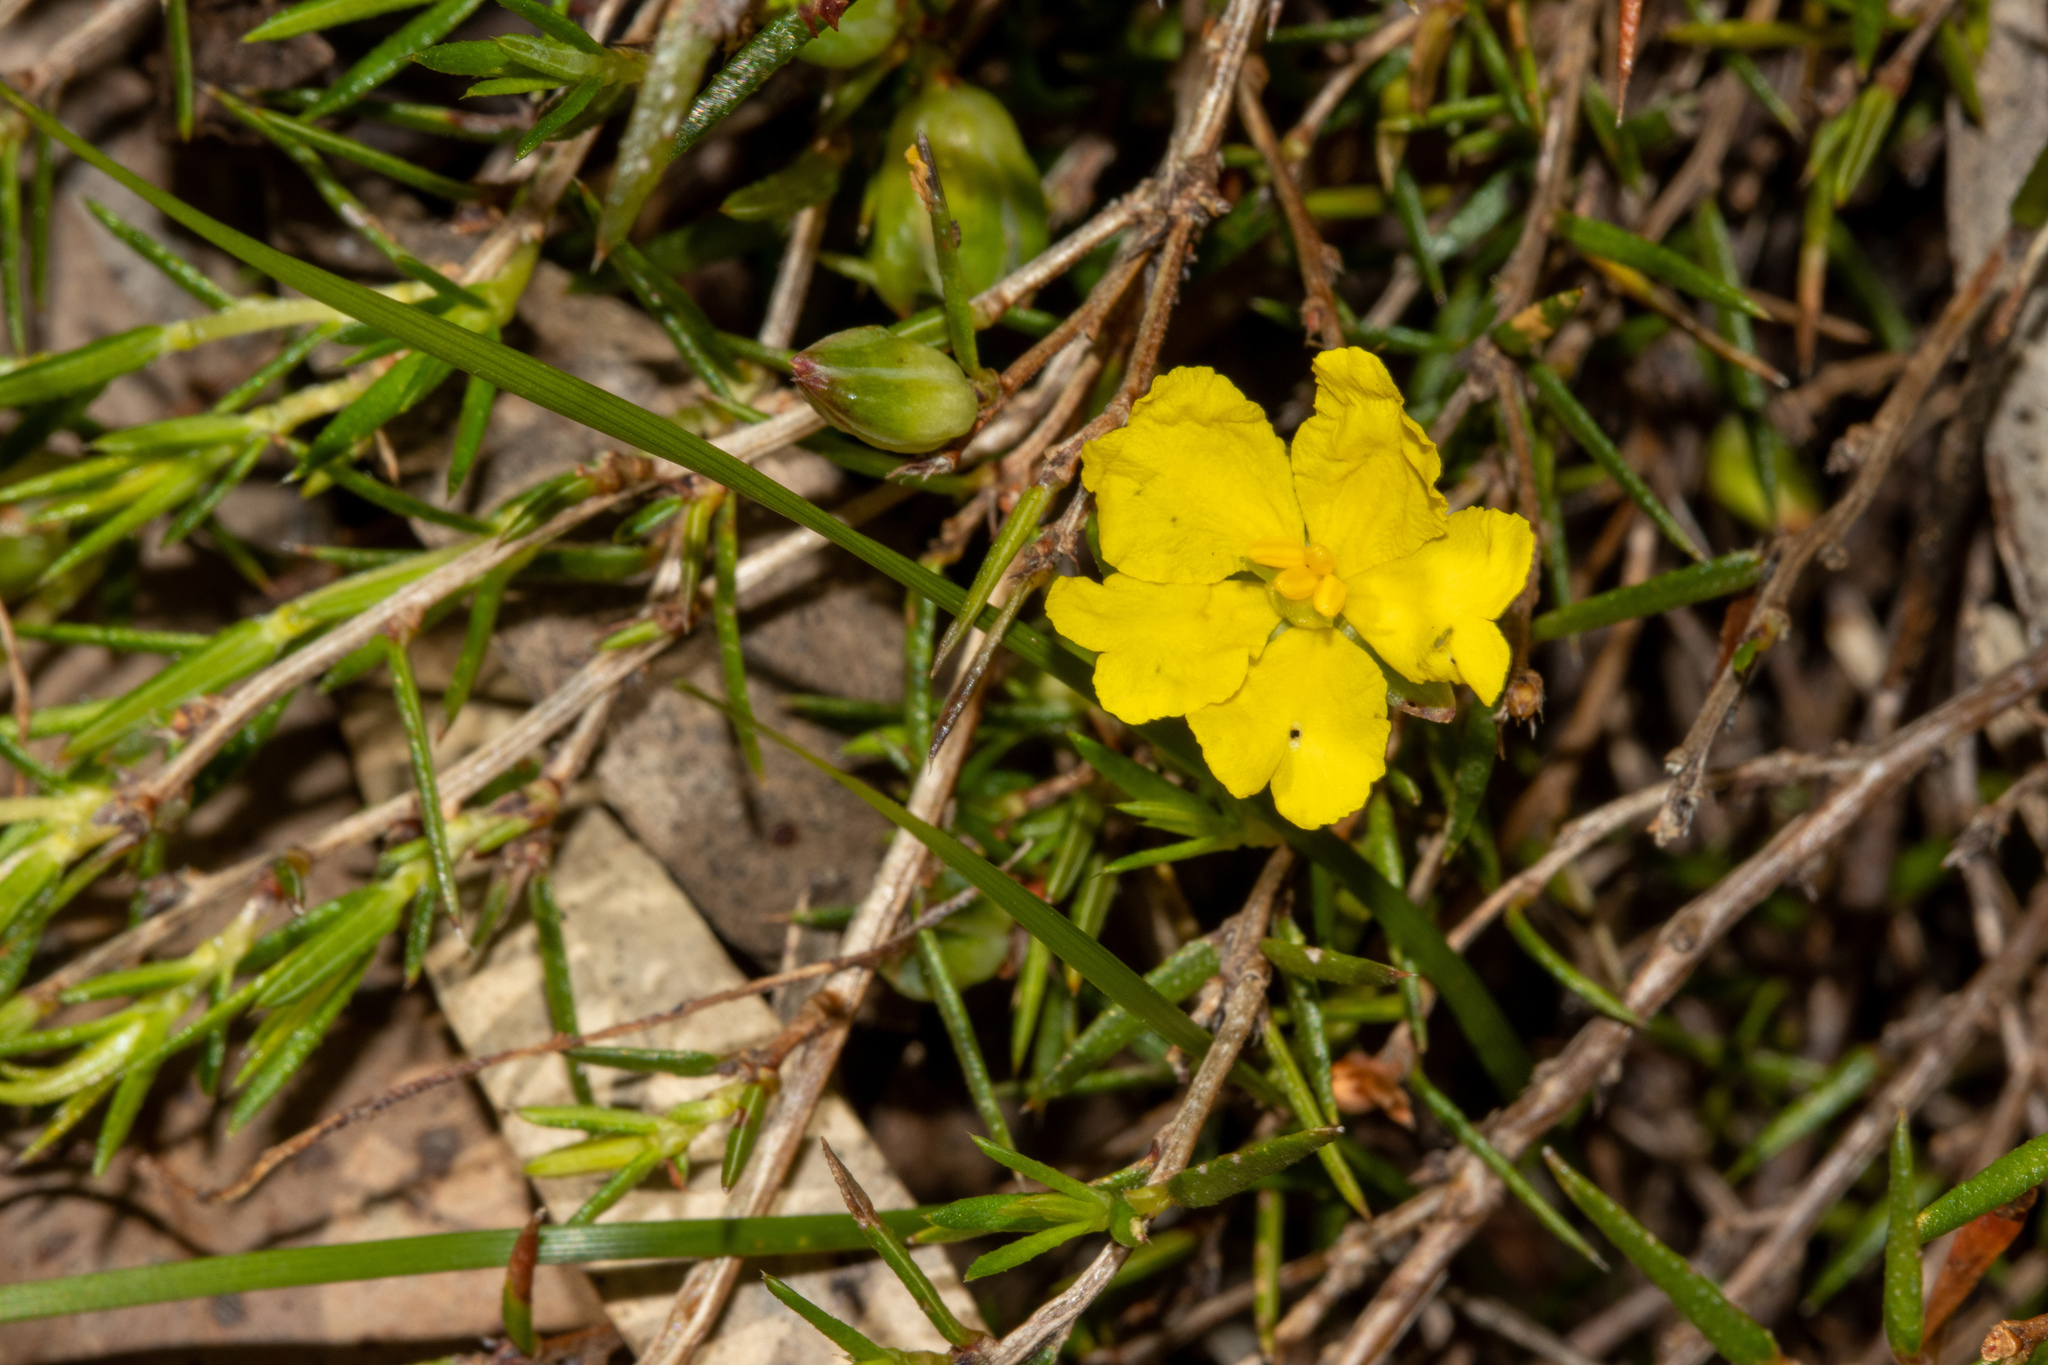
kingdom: Plantae
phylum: Tracheophyta
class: Magnoliopsida
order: Dilleniales
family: Dilleniaceae
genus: Hibbertia
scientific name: Hibbertia exutiacies
